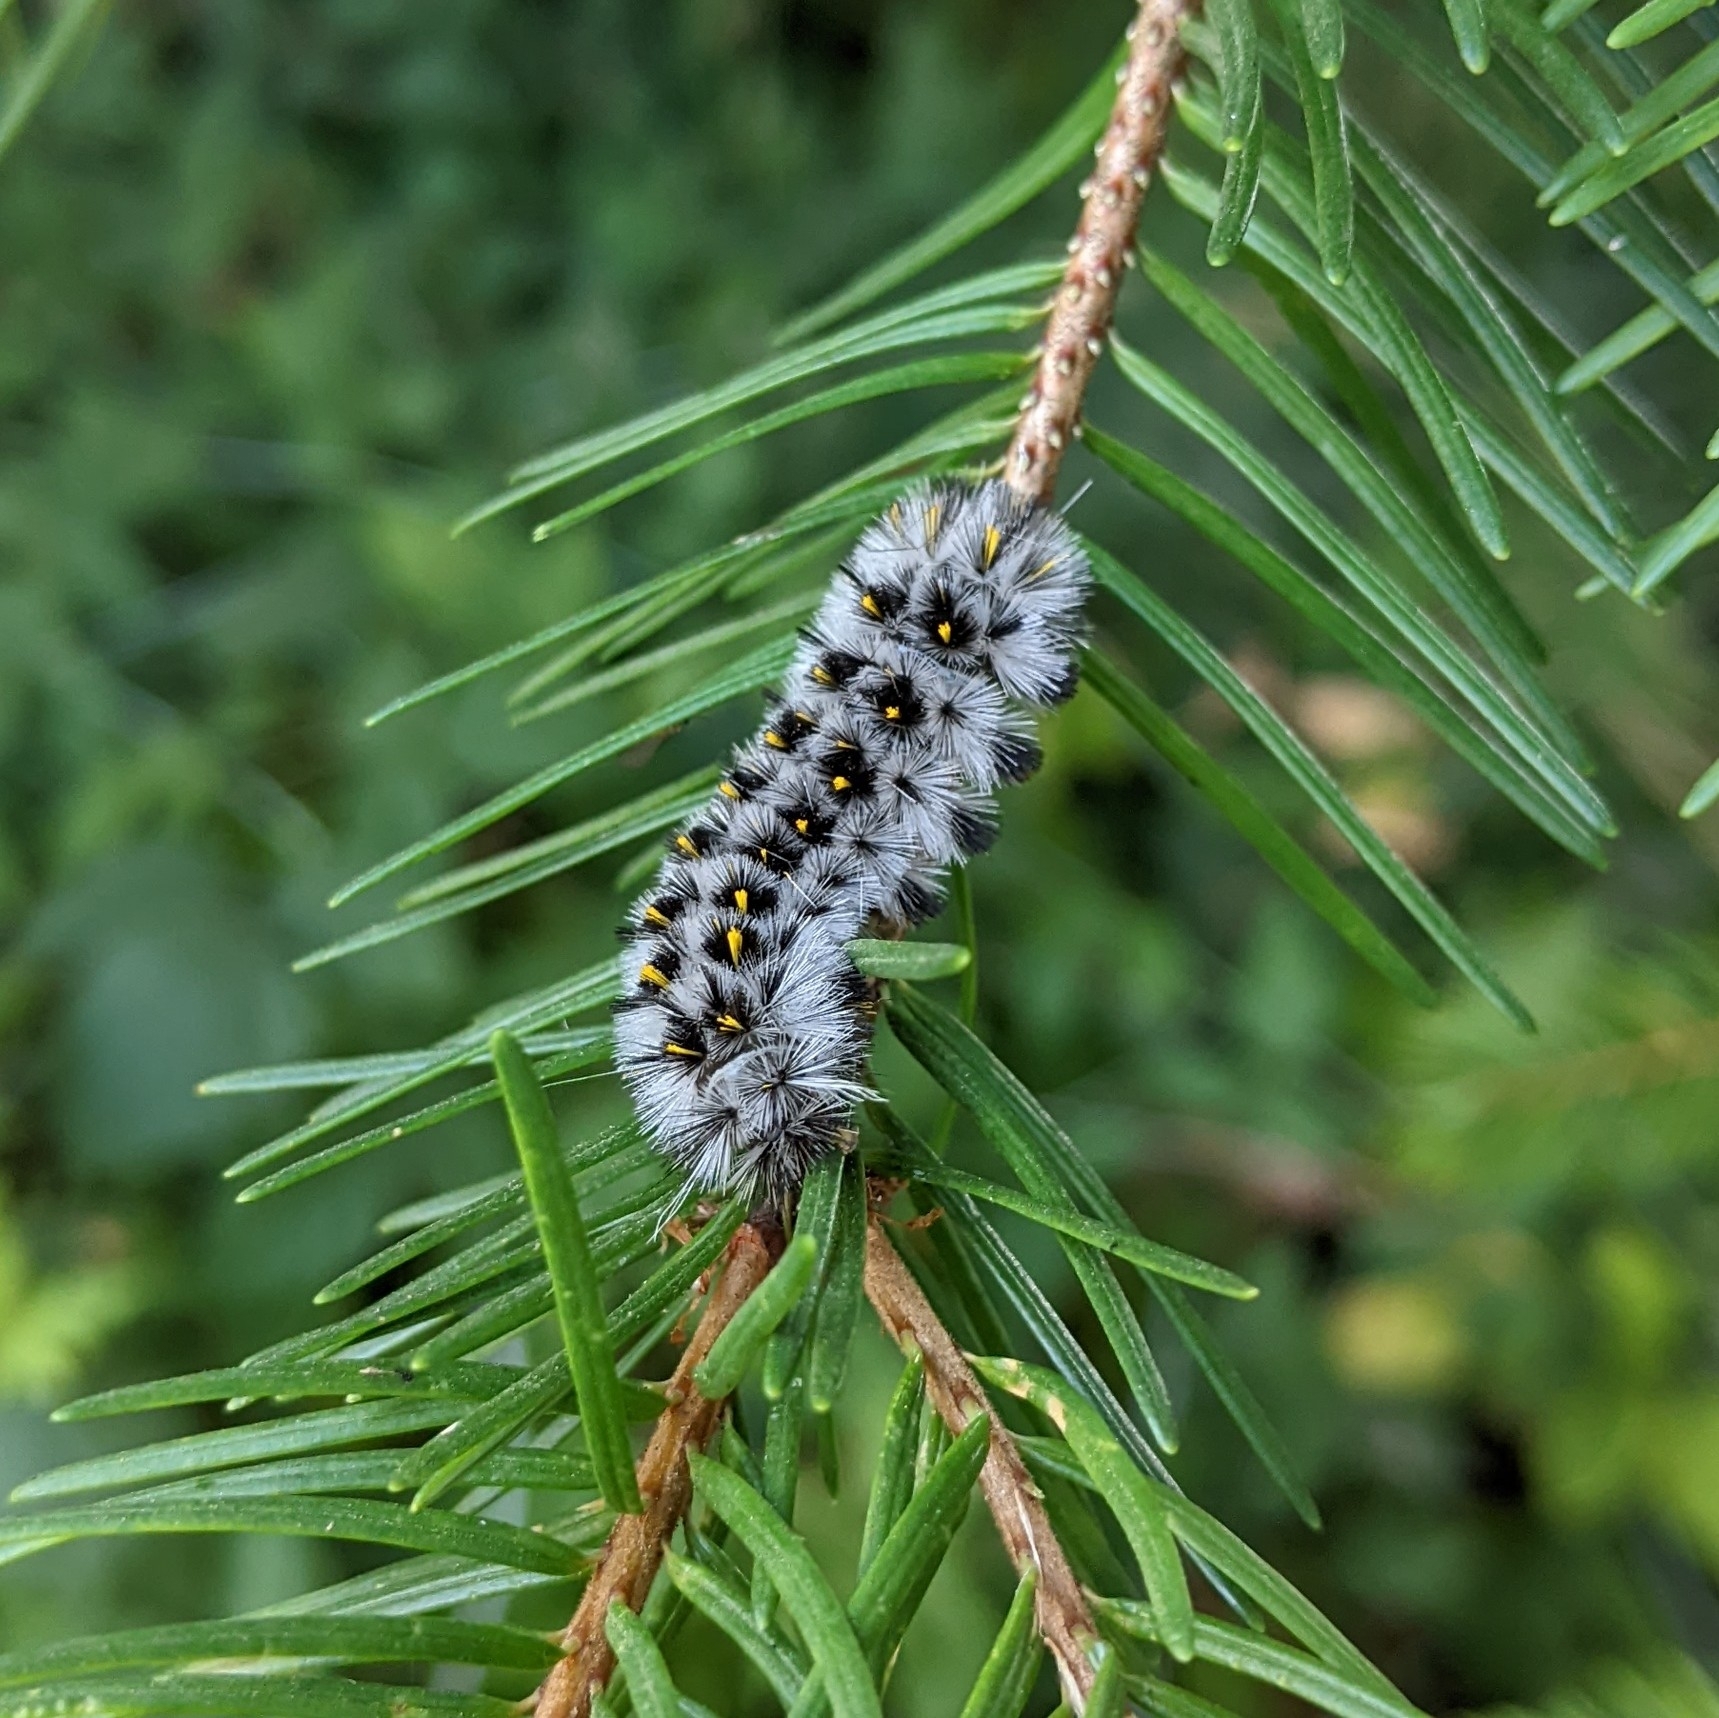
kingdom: Animalia
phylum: Arthropoda
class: Insecta
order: Lepidoptera
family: Erebidae
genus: Lophocampa
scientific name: Lophocampa roseata
